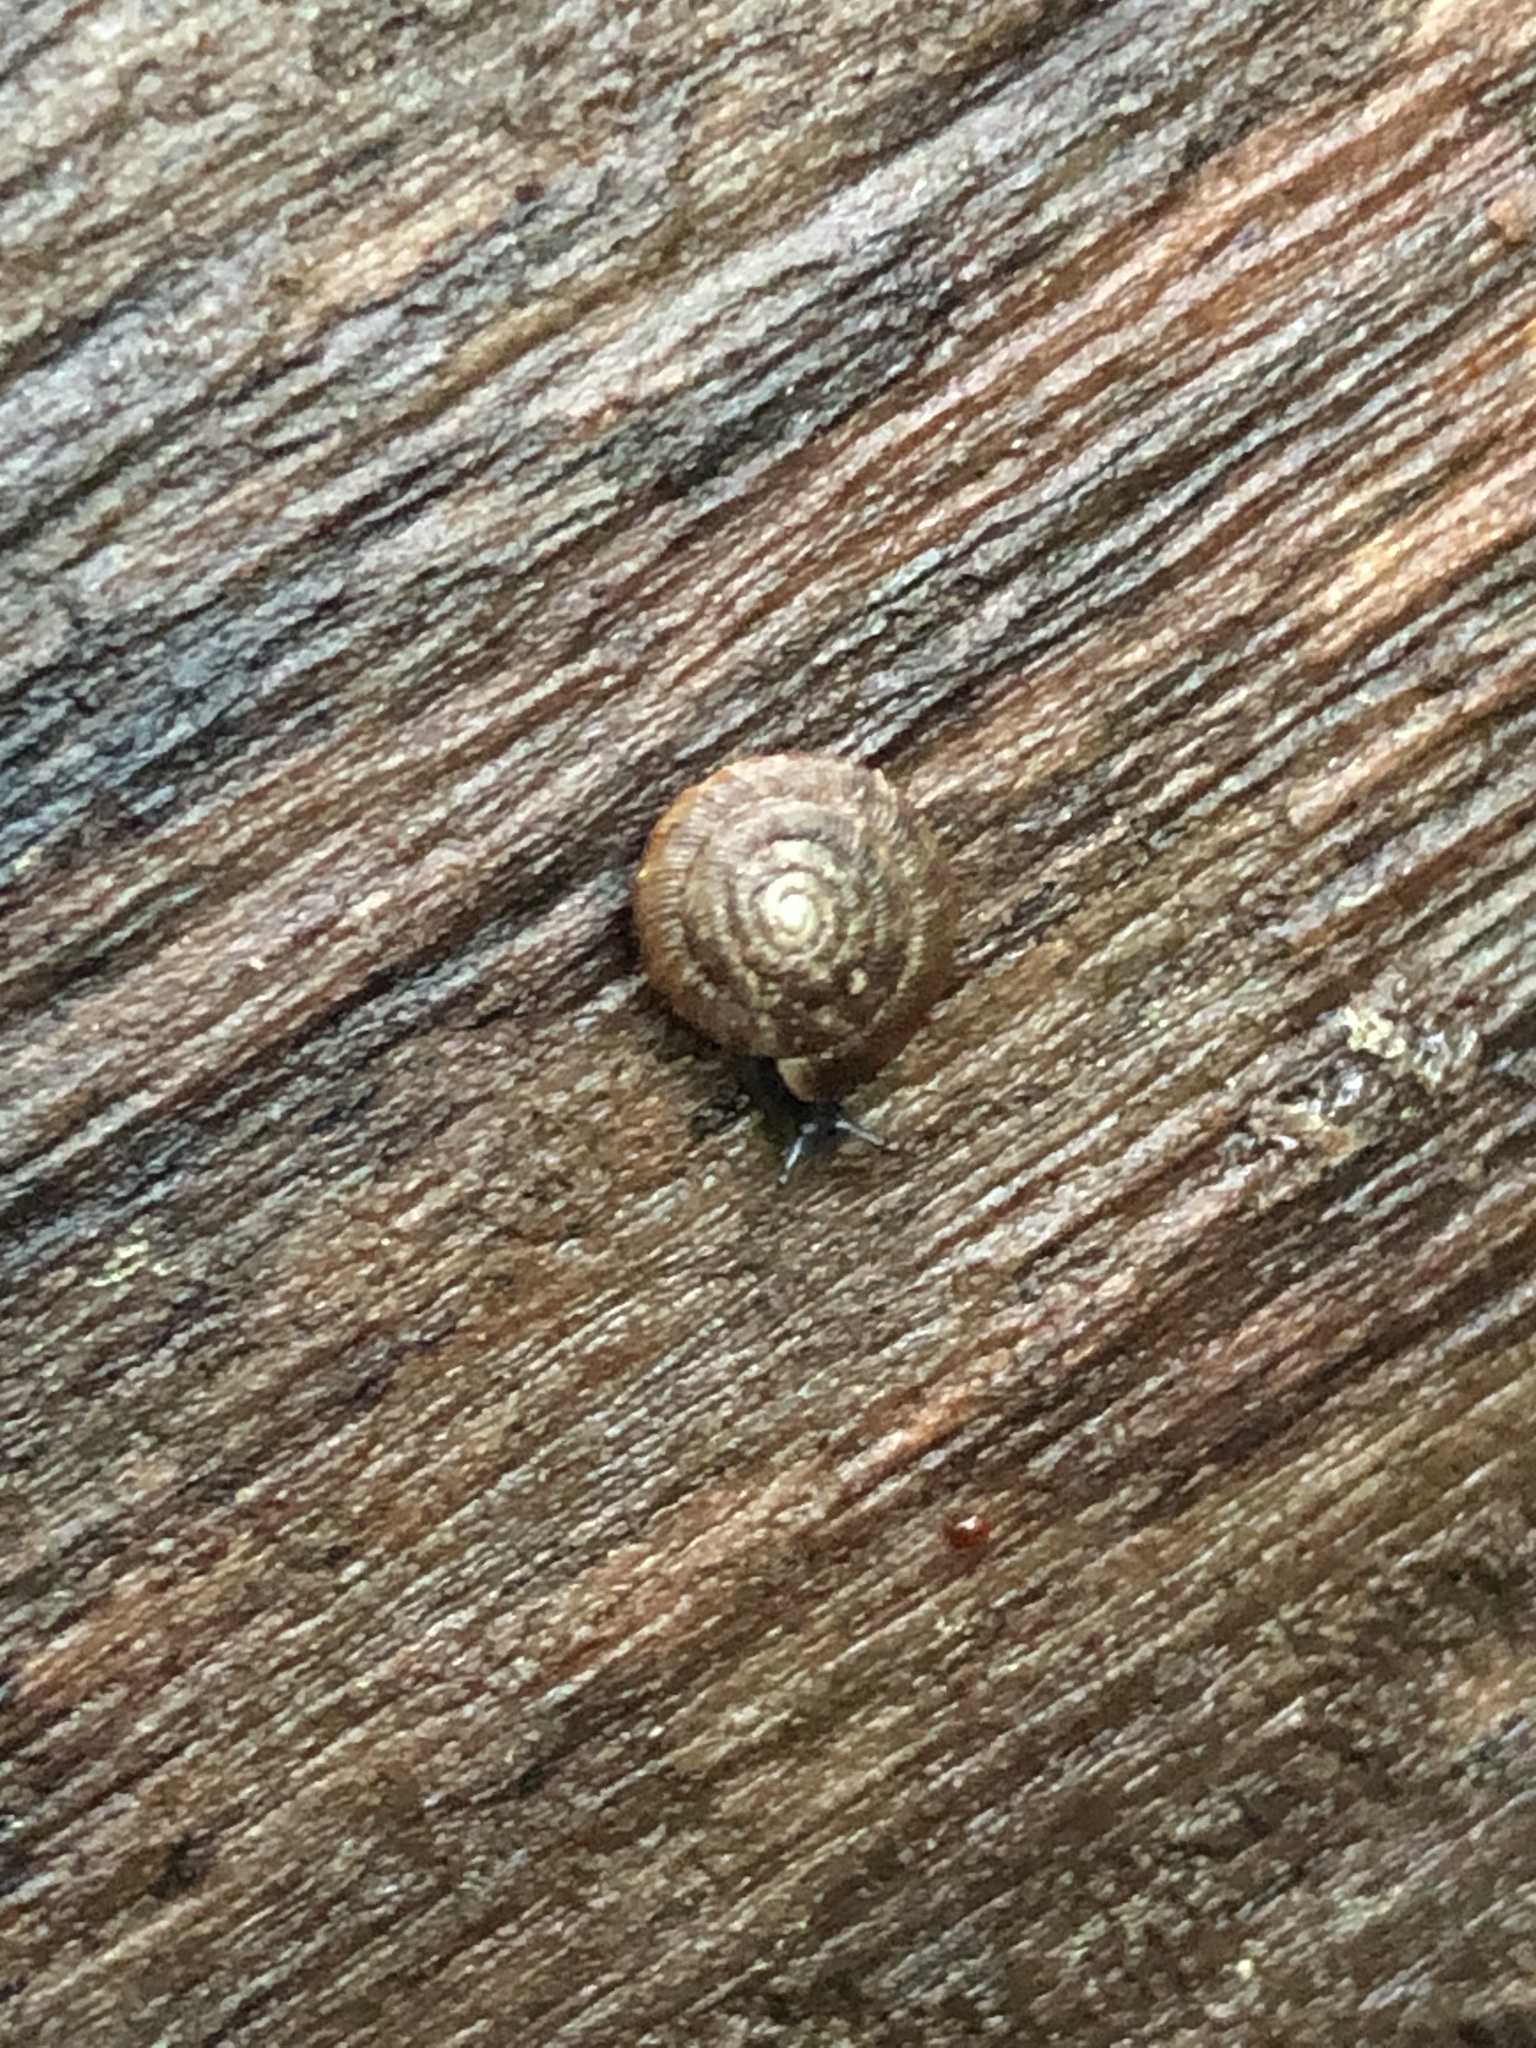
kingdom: Animalia
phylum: Mollusca
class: Gastropoda
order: Stylommatophora
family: Discidae
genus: Discus
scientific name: Discus rotundatus
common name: Rounded snail
